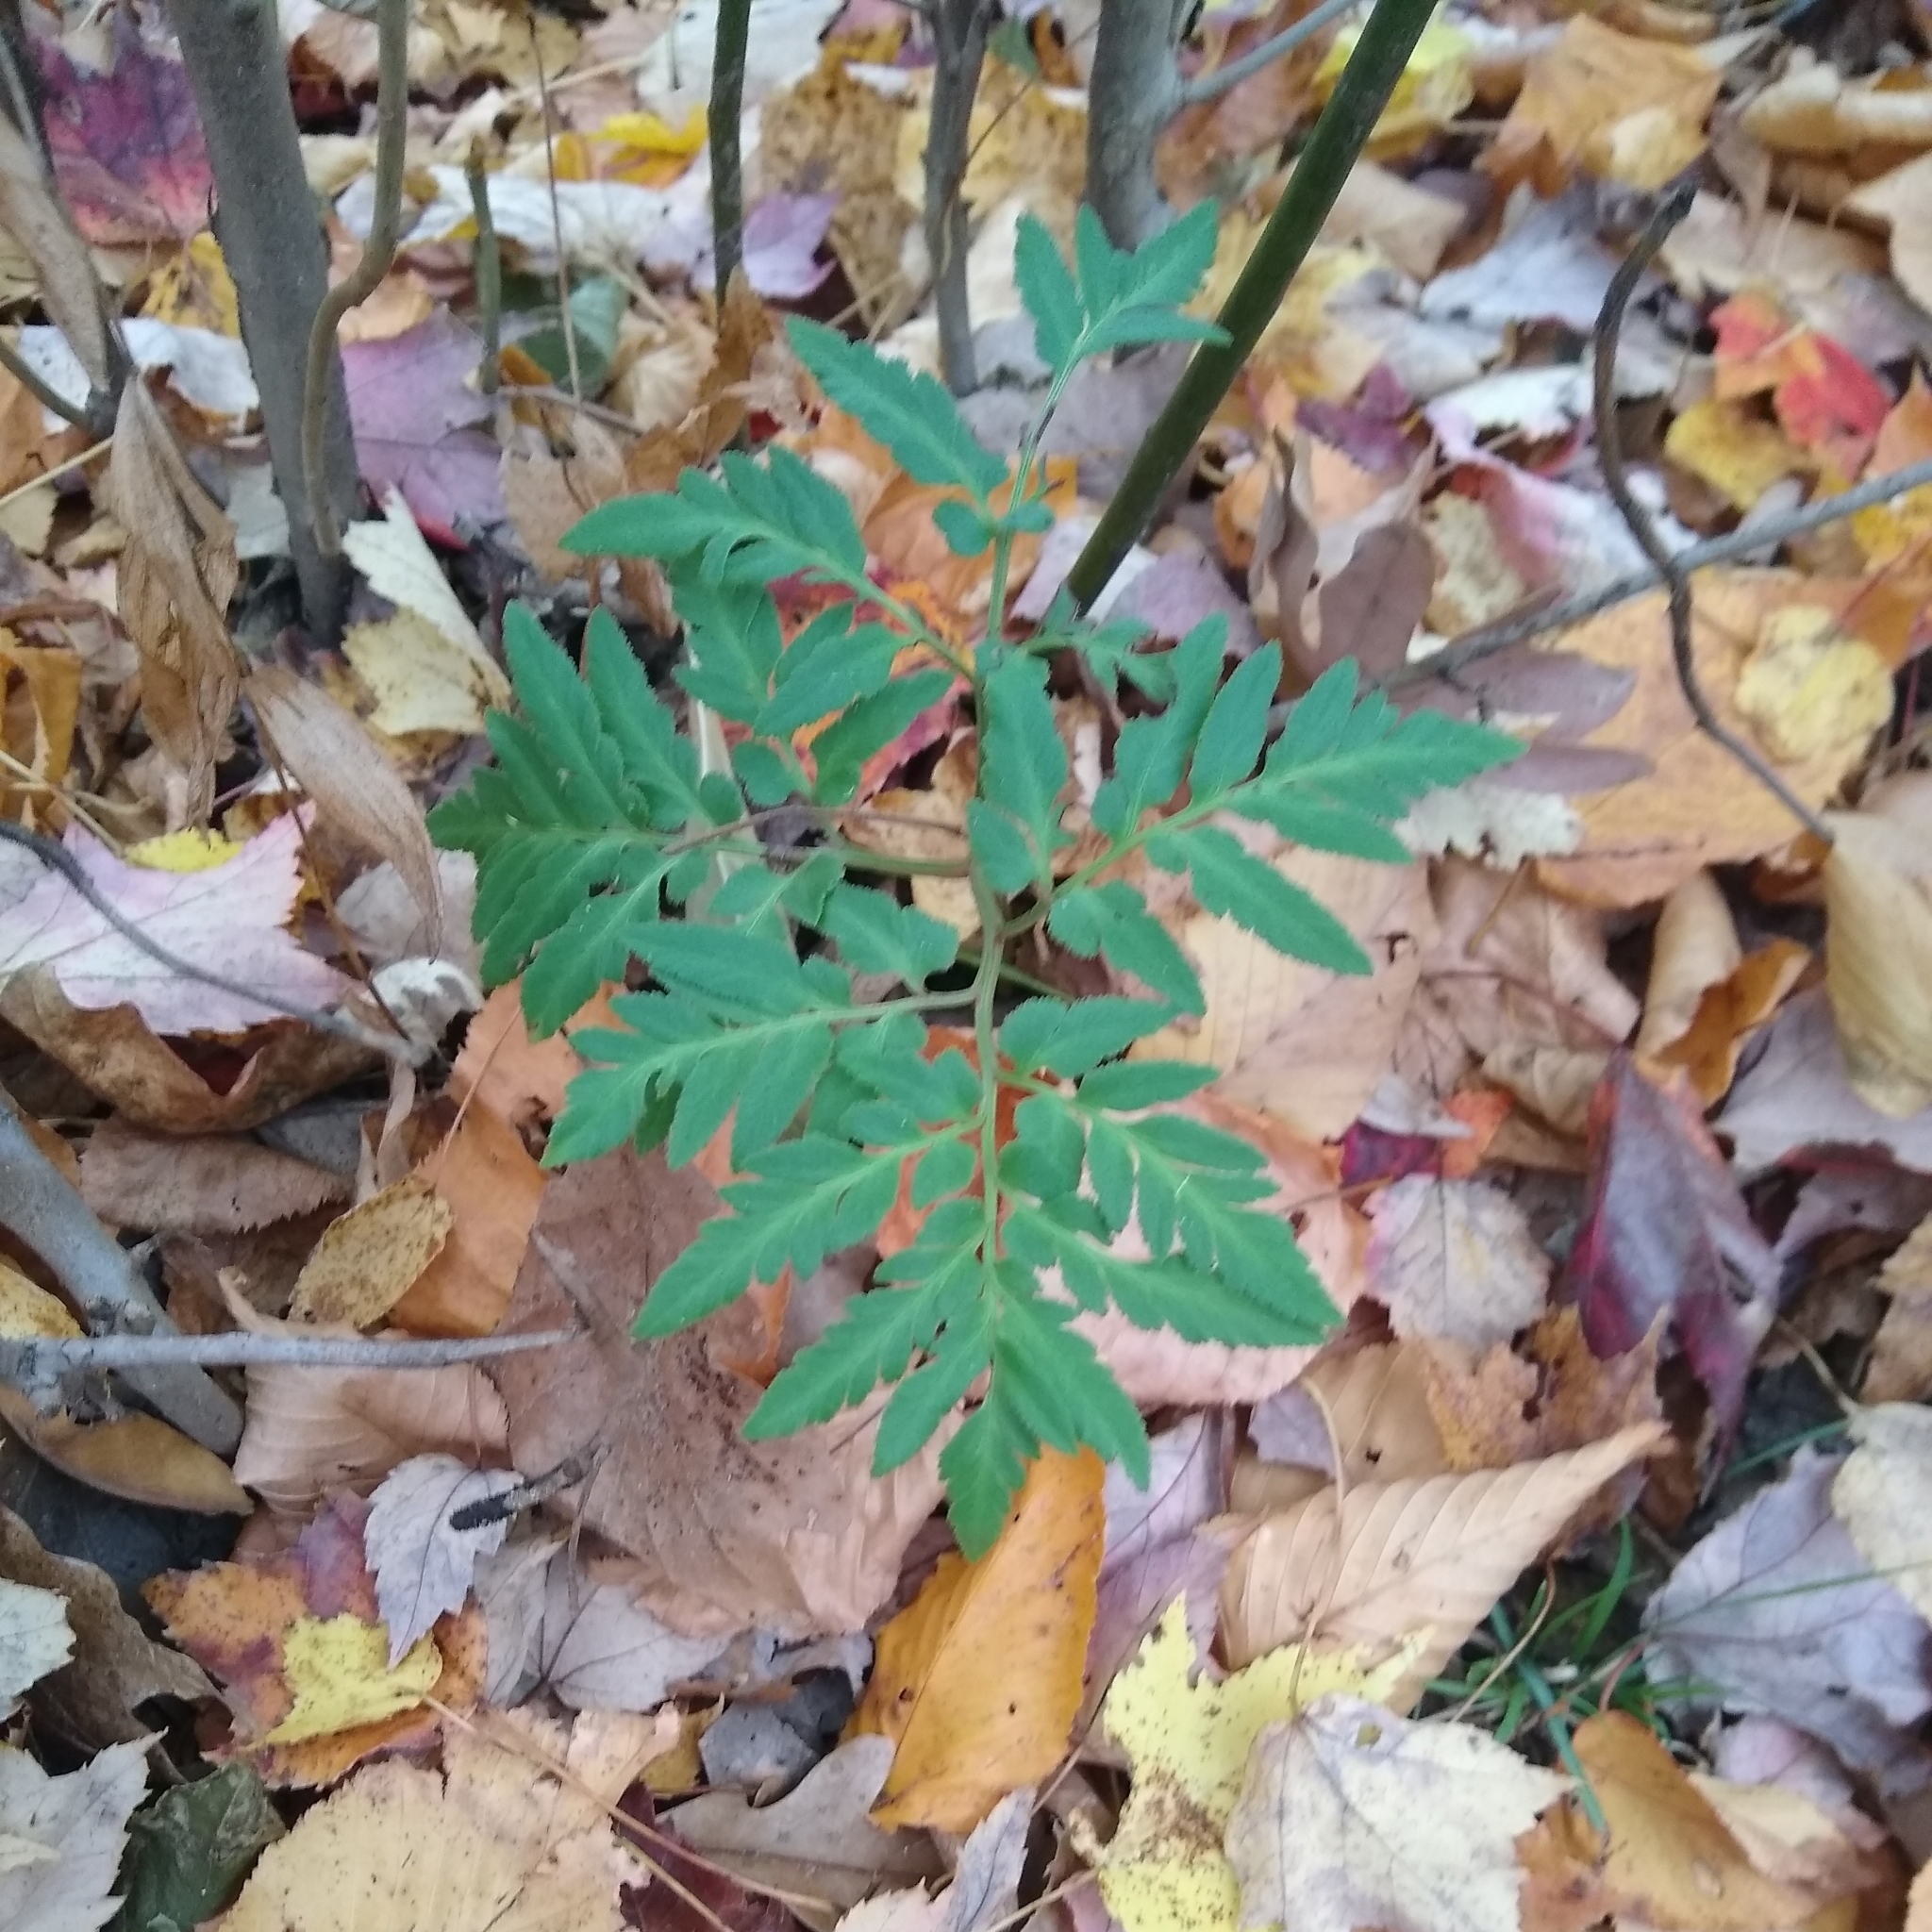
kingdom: Plantae
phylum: Tracheophyta
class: Polypodiopsida
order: Ophioglossales
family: Ophioglossaceae
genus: Sceptridium
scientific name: Sceptridium dissectum
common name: Cut-leaved grapefern
